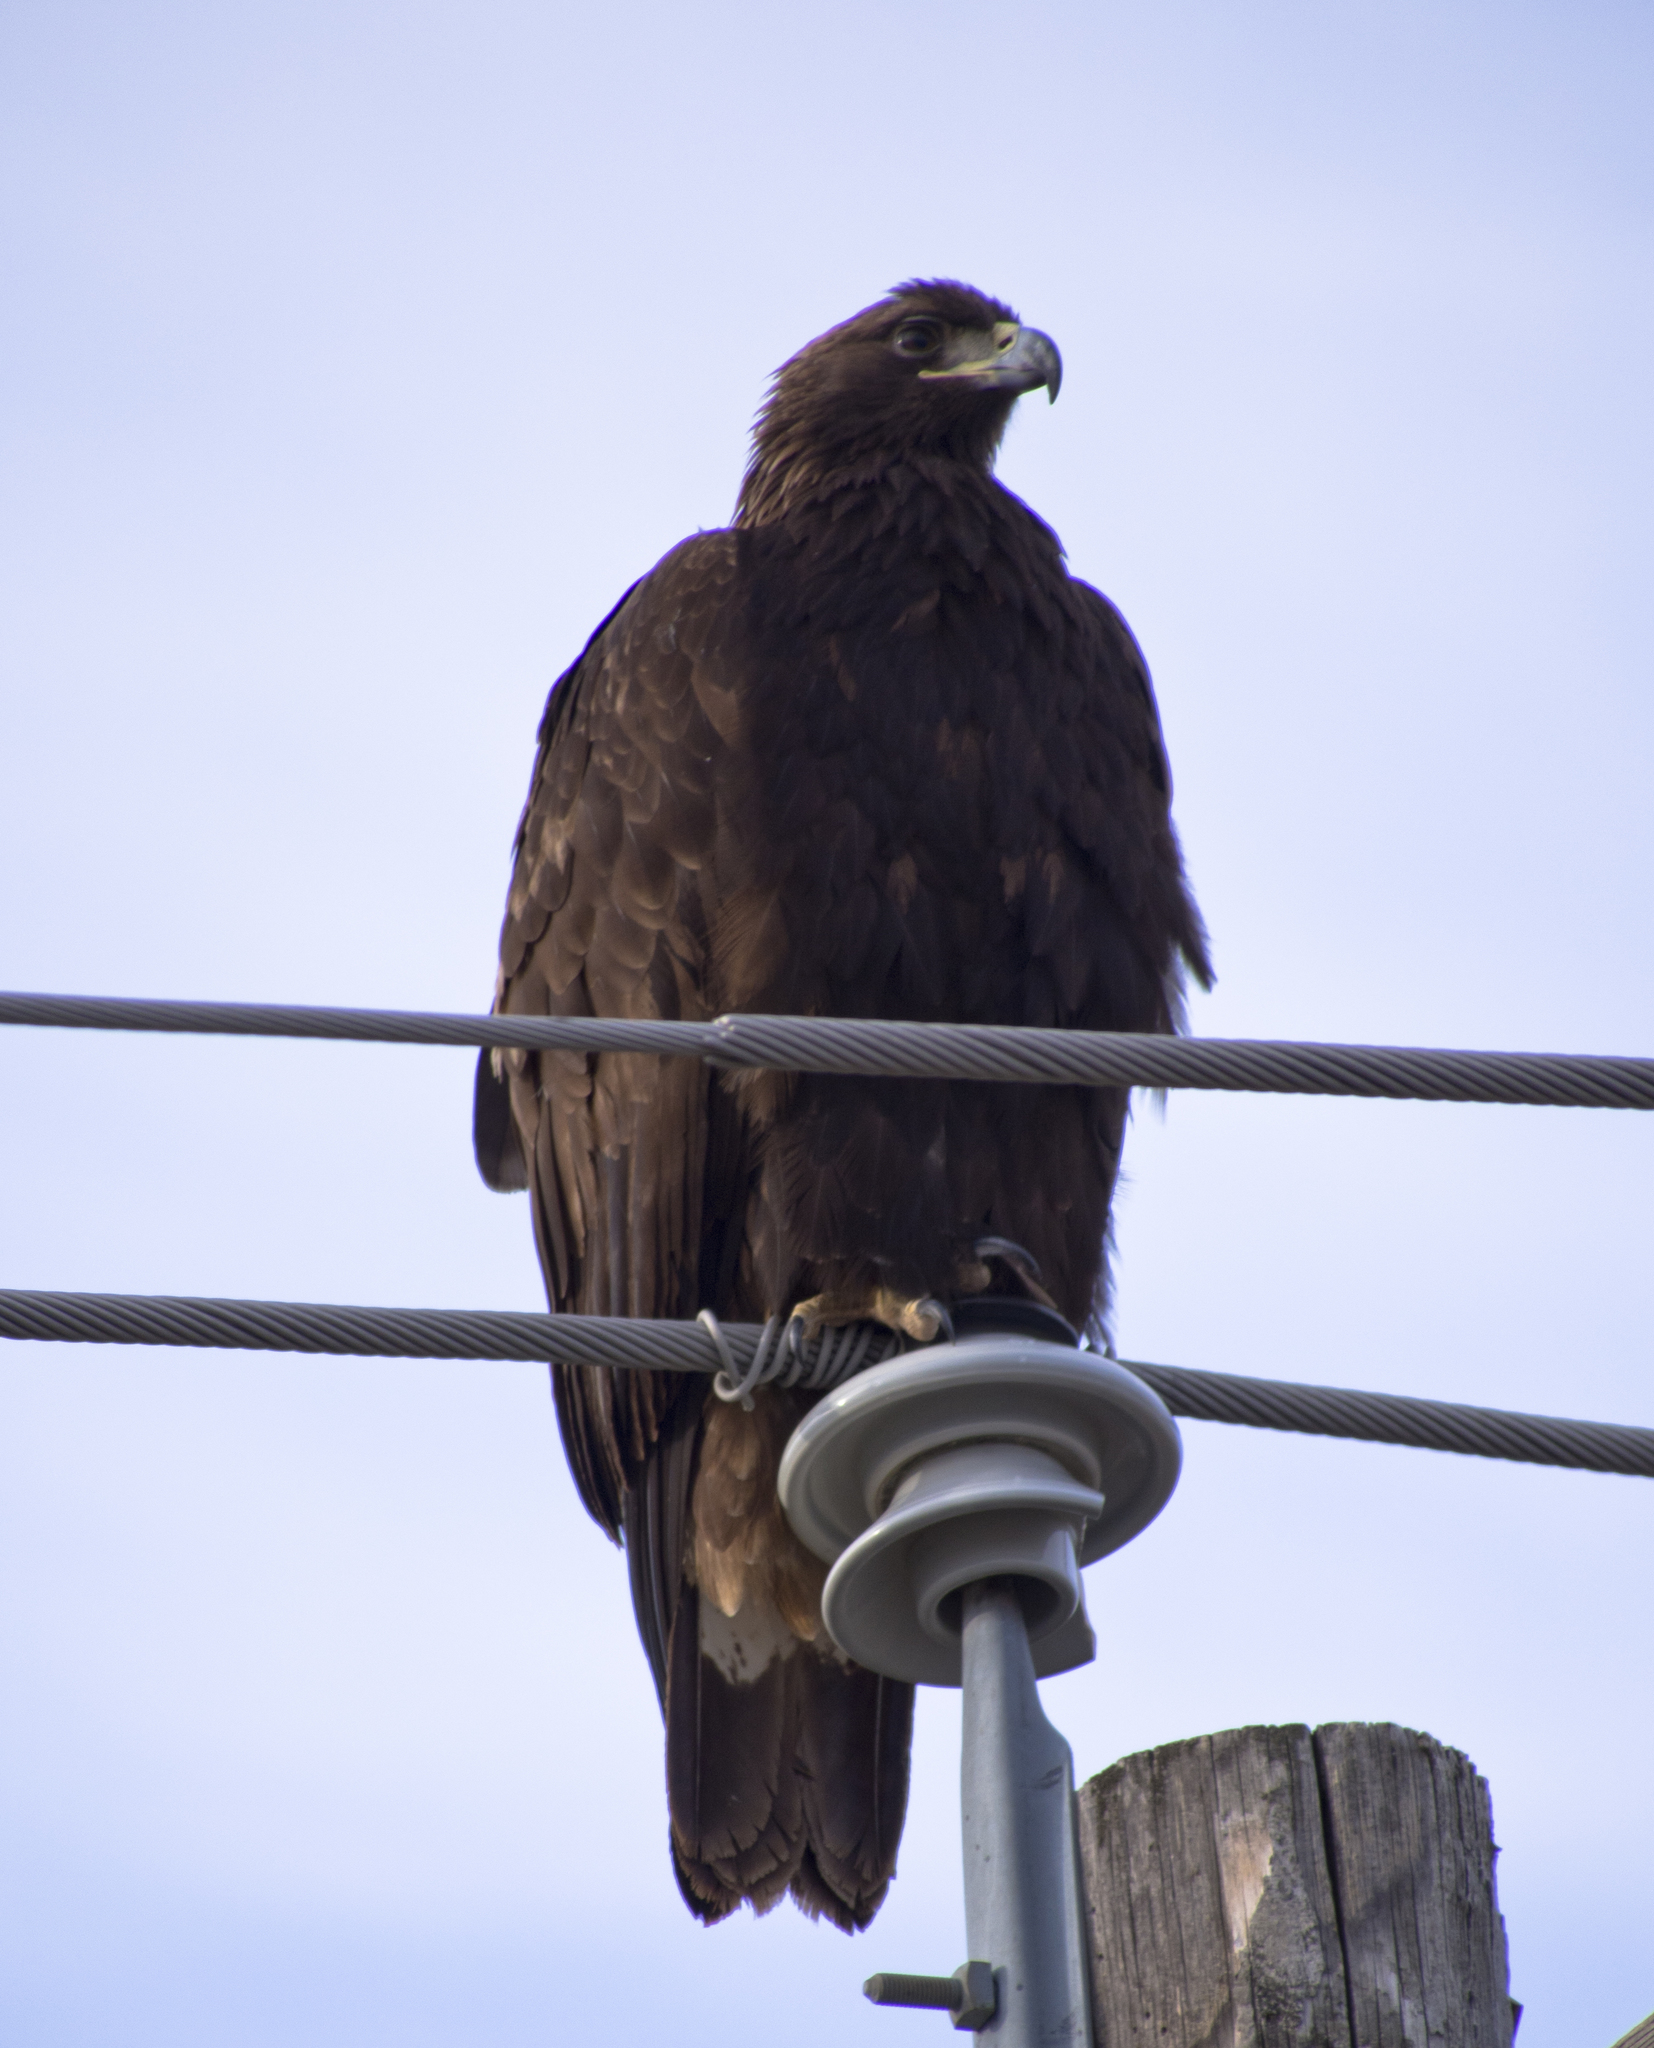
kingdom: Animalia
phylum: Chordata
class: Aves
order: Accipitriformes
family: Accipitridae
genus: Aquila
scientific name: Aquila chrysaetos
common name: Golden eagle
